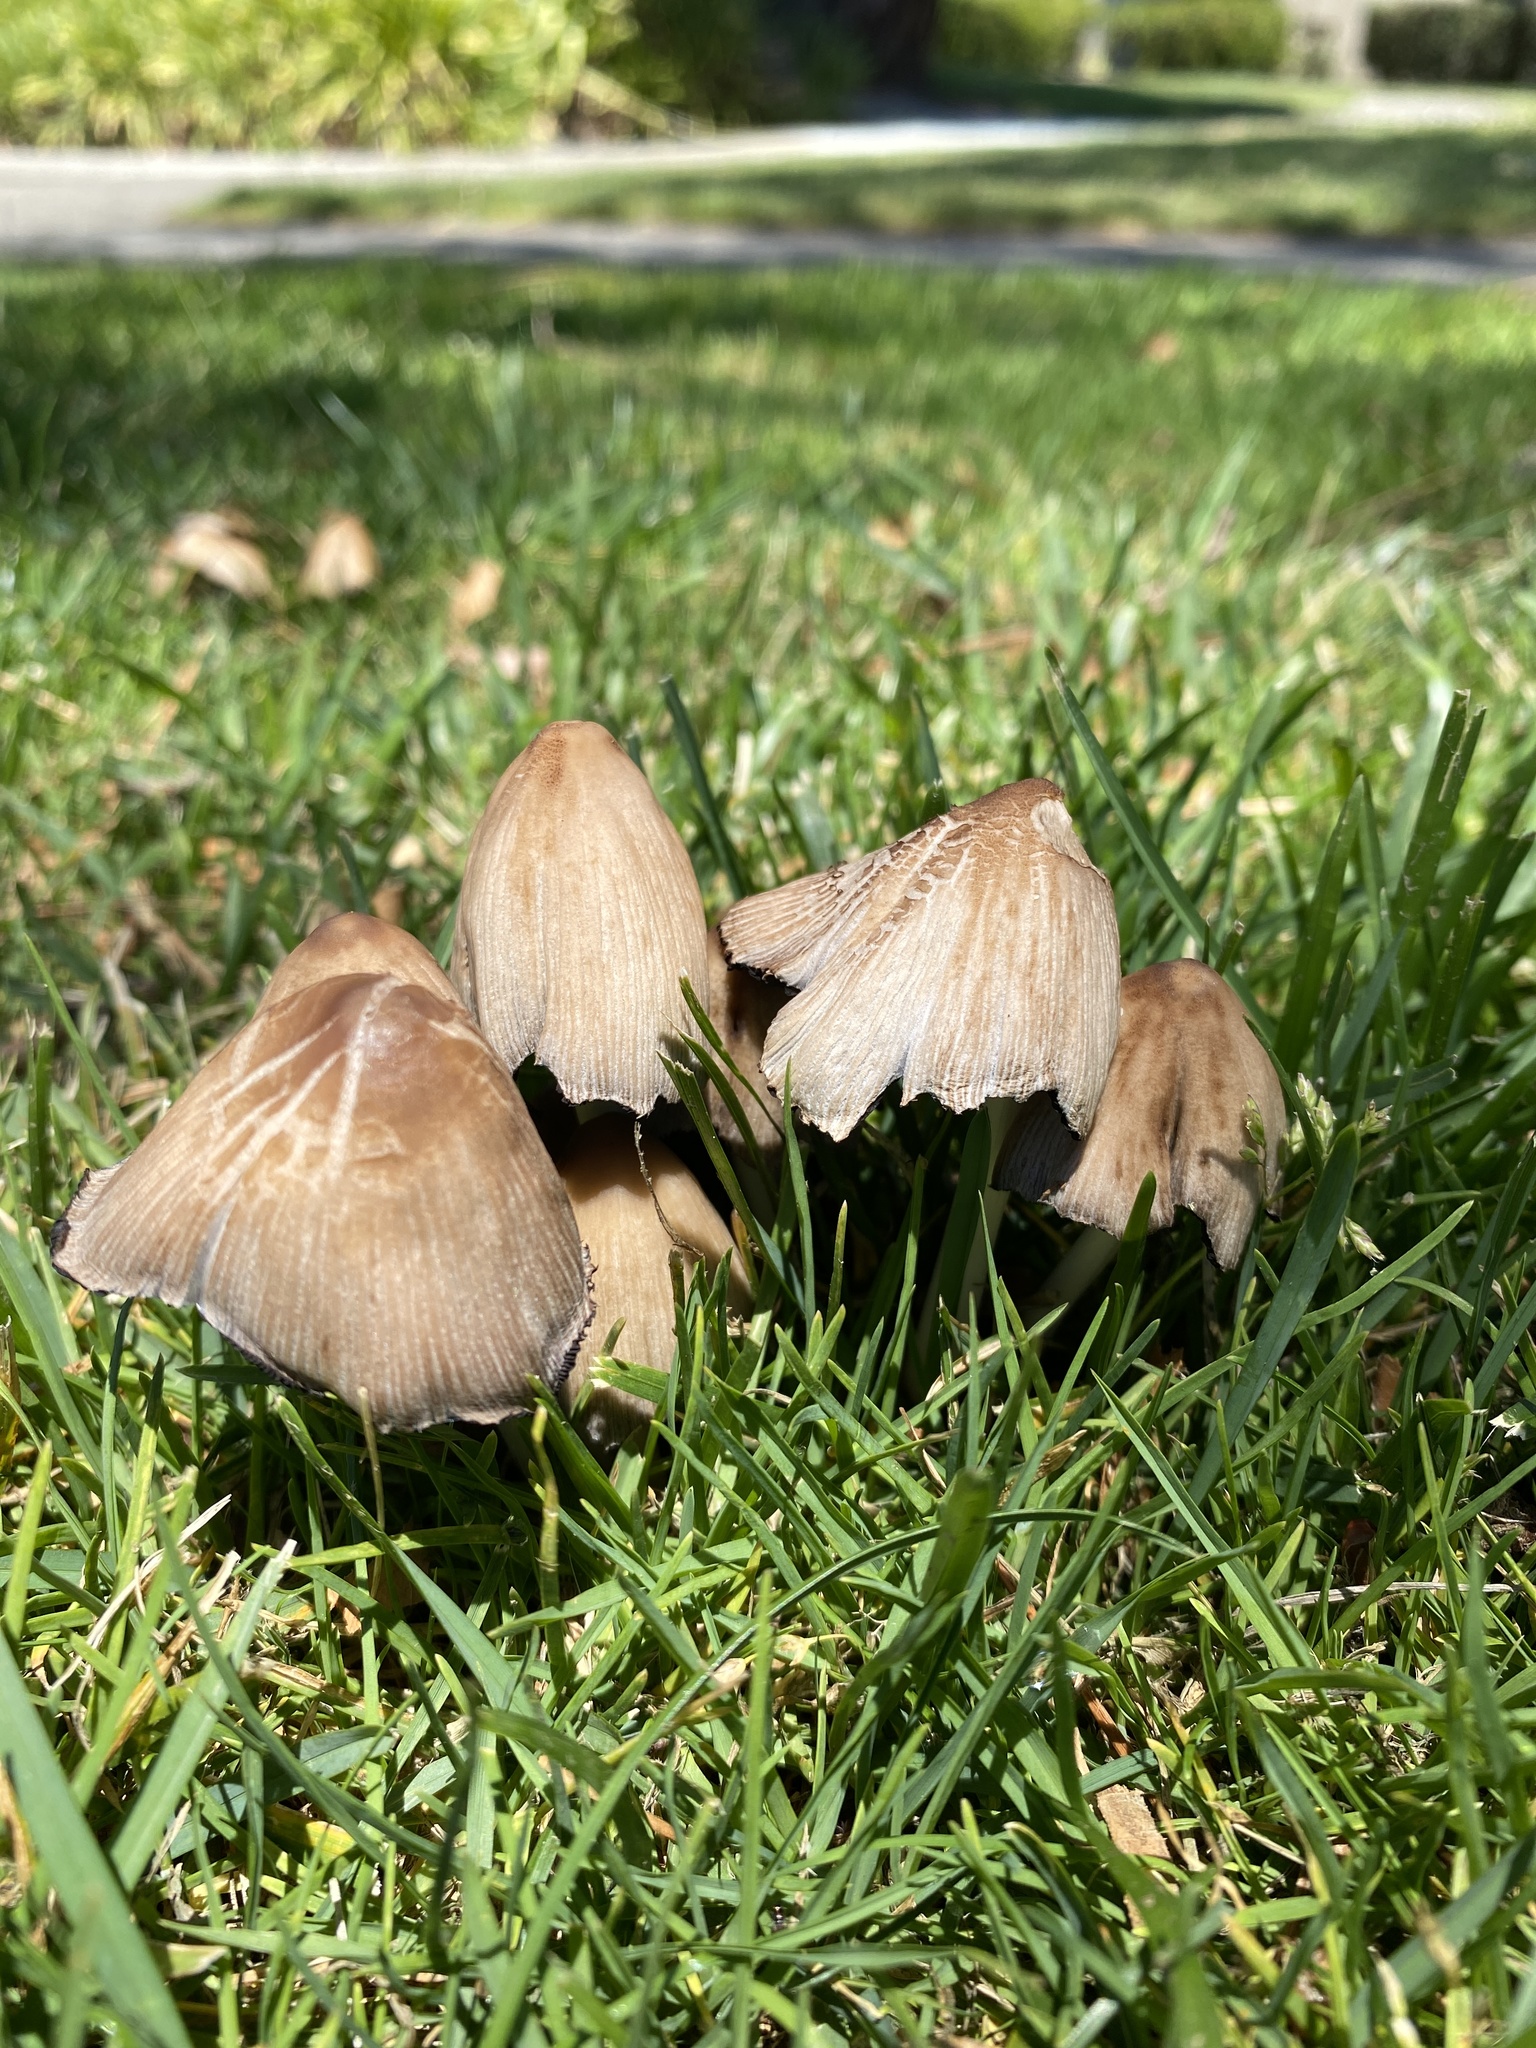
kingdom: Fungi
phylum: Basidiomycota
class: Agaricomycetes
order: Agaricales
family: Psathyrellaceae
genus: Coprinellus
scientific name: Coprinellus micaceus
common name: Glistening ink-cap
